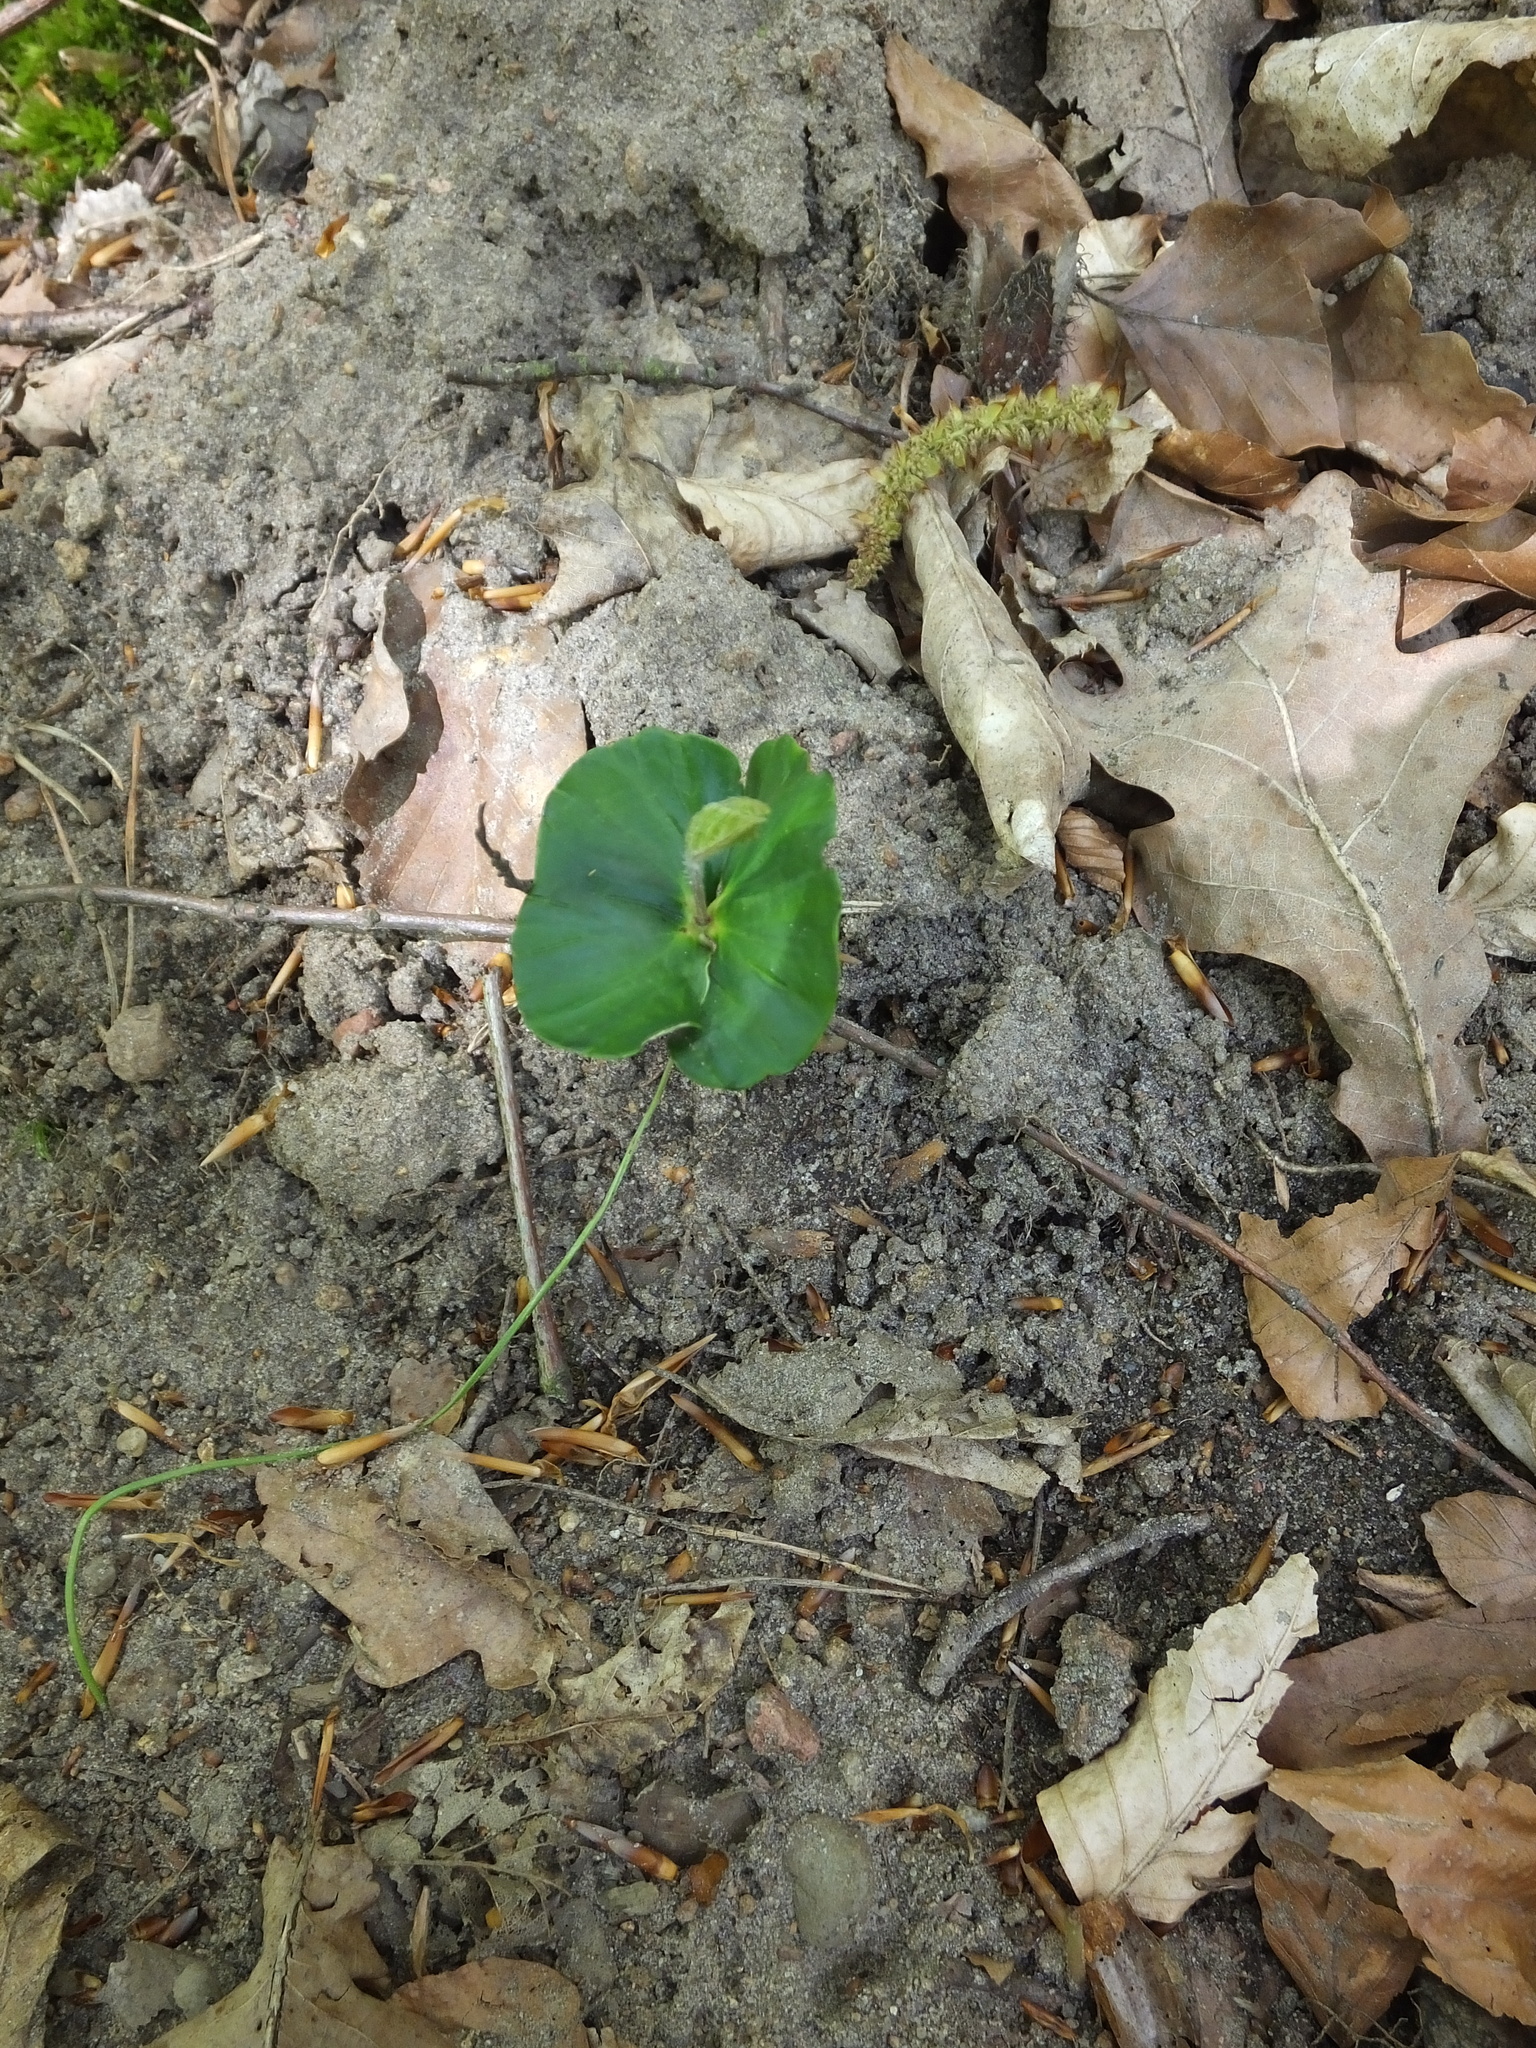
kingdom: Plantae
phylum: Tracheophyta
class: Magnoliopsida
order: Fagales
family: Fagaceae
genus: Fagus
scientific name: Fagus sylvatica
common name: Beech
